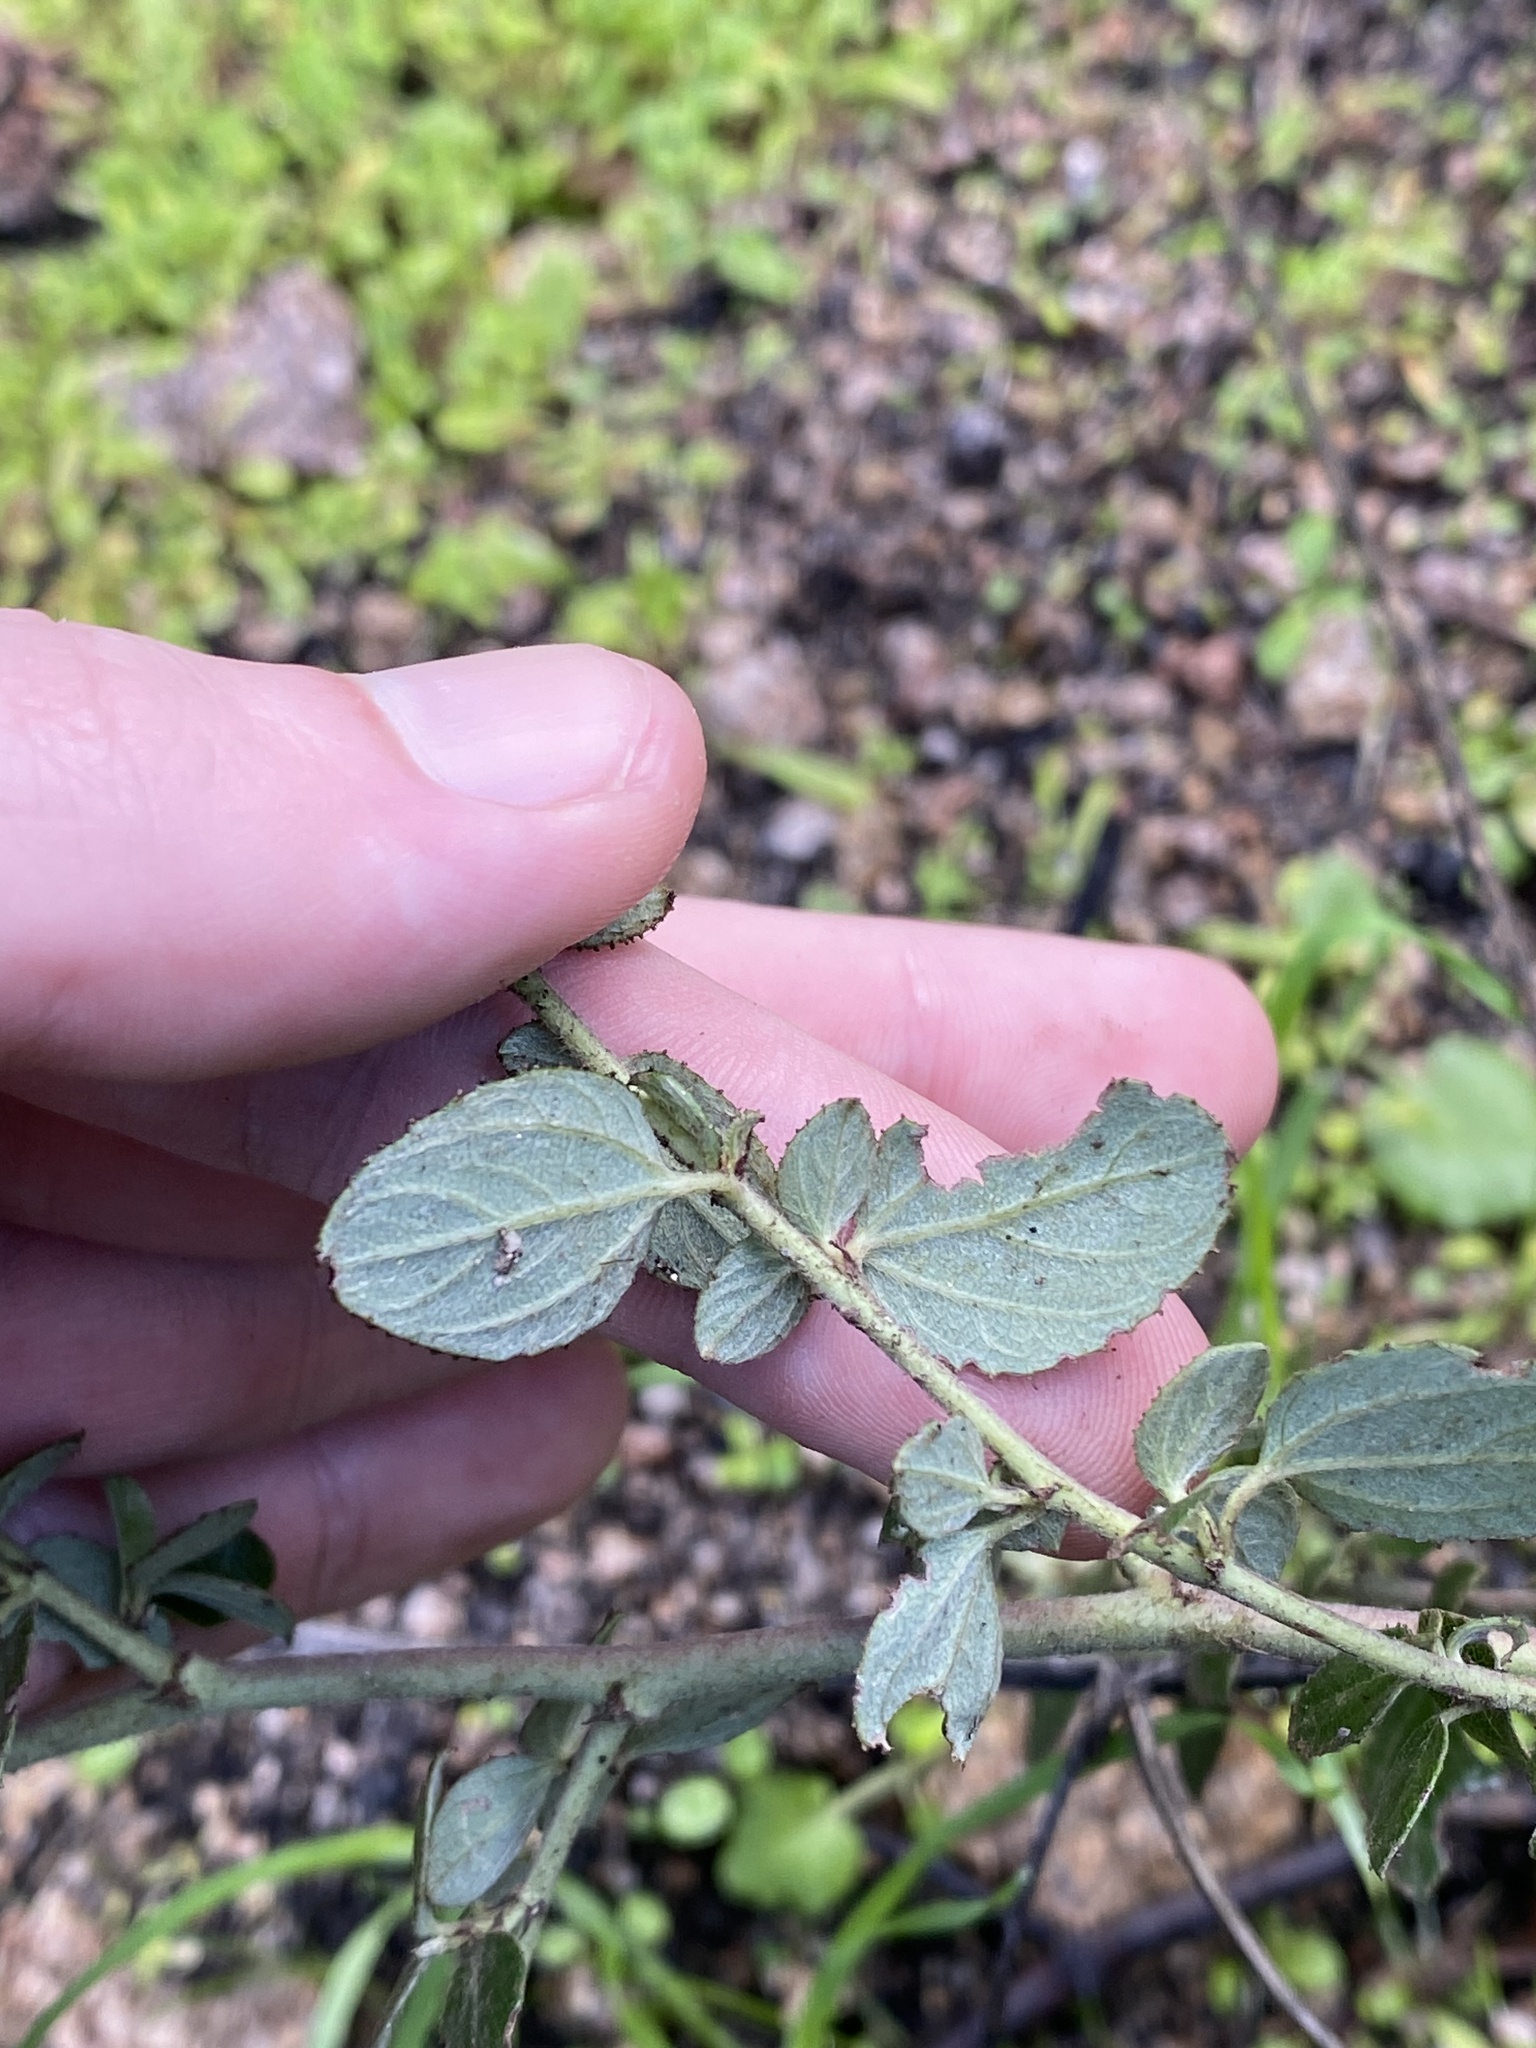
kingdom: Plantae
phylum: Tracheophyta
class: Magnoliopsida
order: Rosales
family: Rhamnaceae
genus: Ceanothus
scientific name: Ceanothus oliganthus
